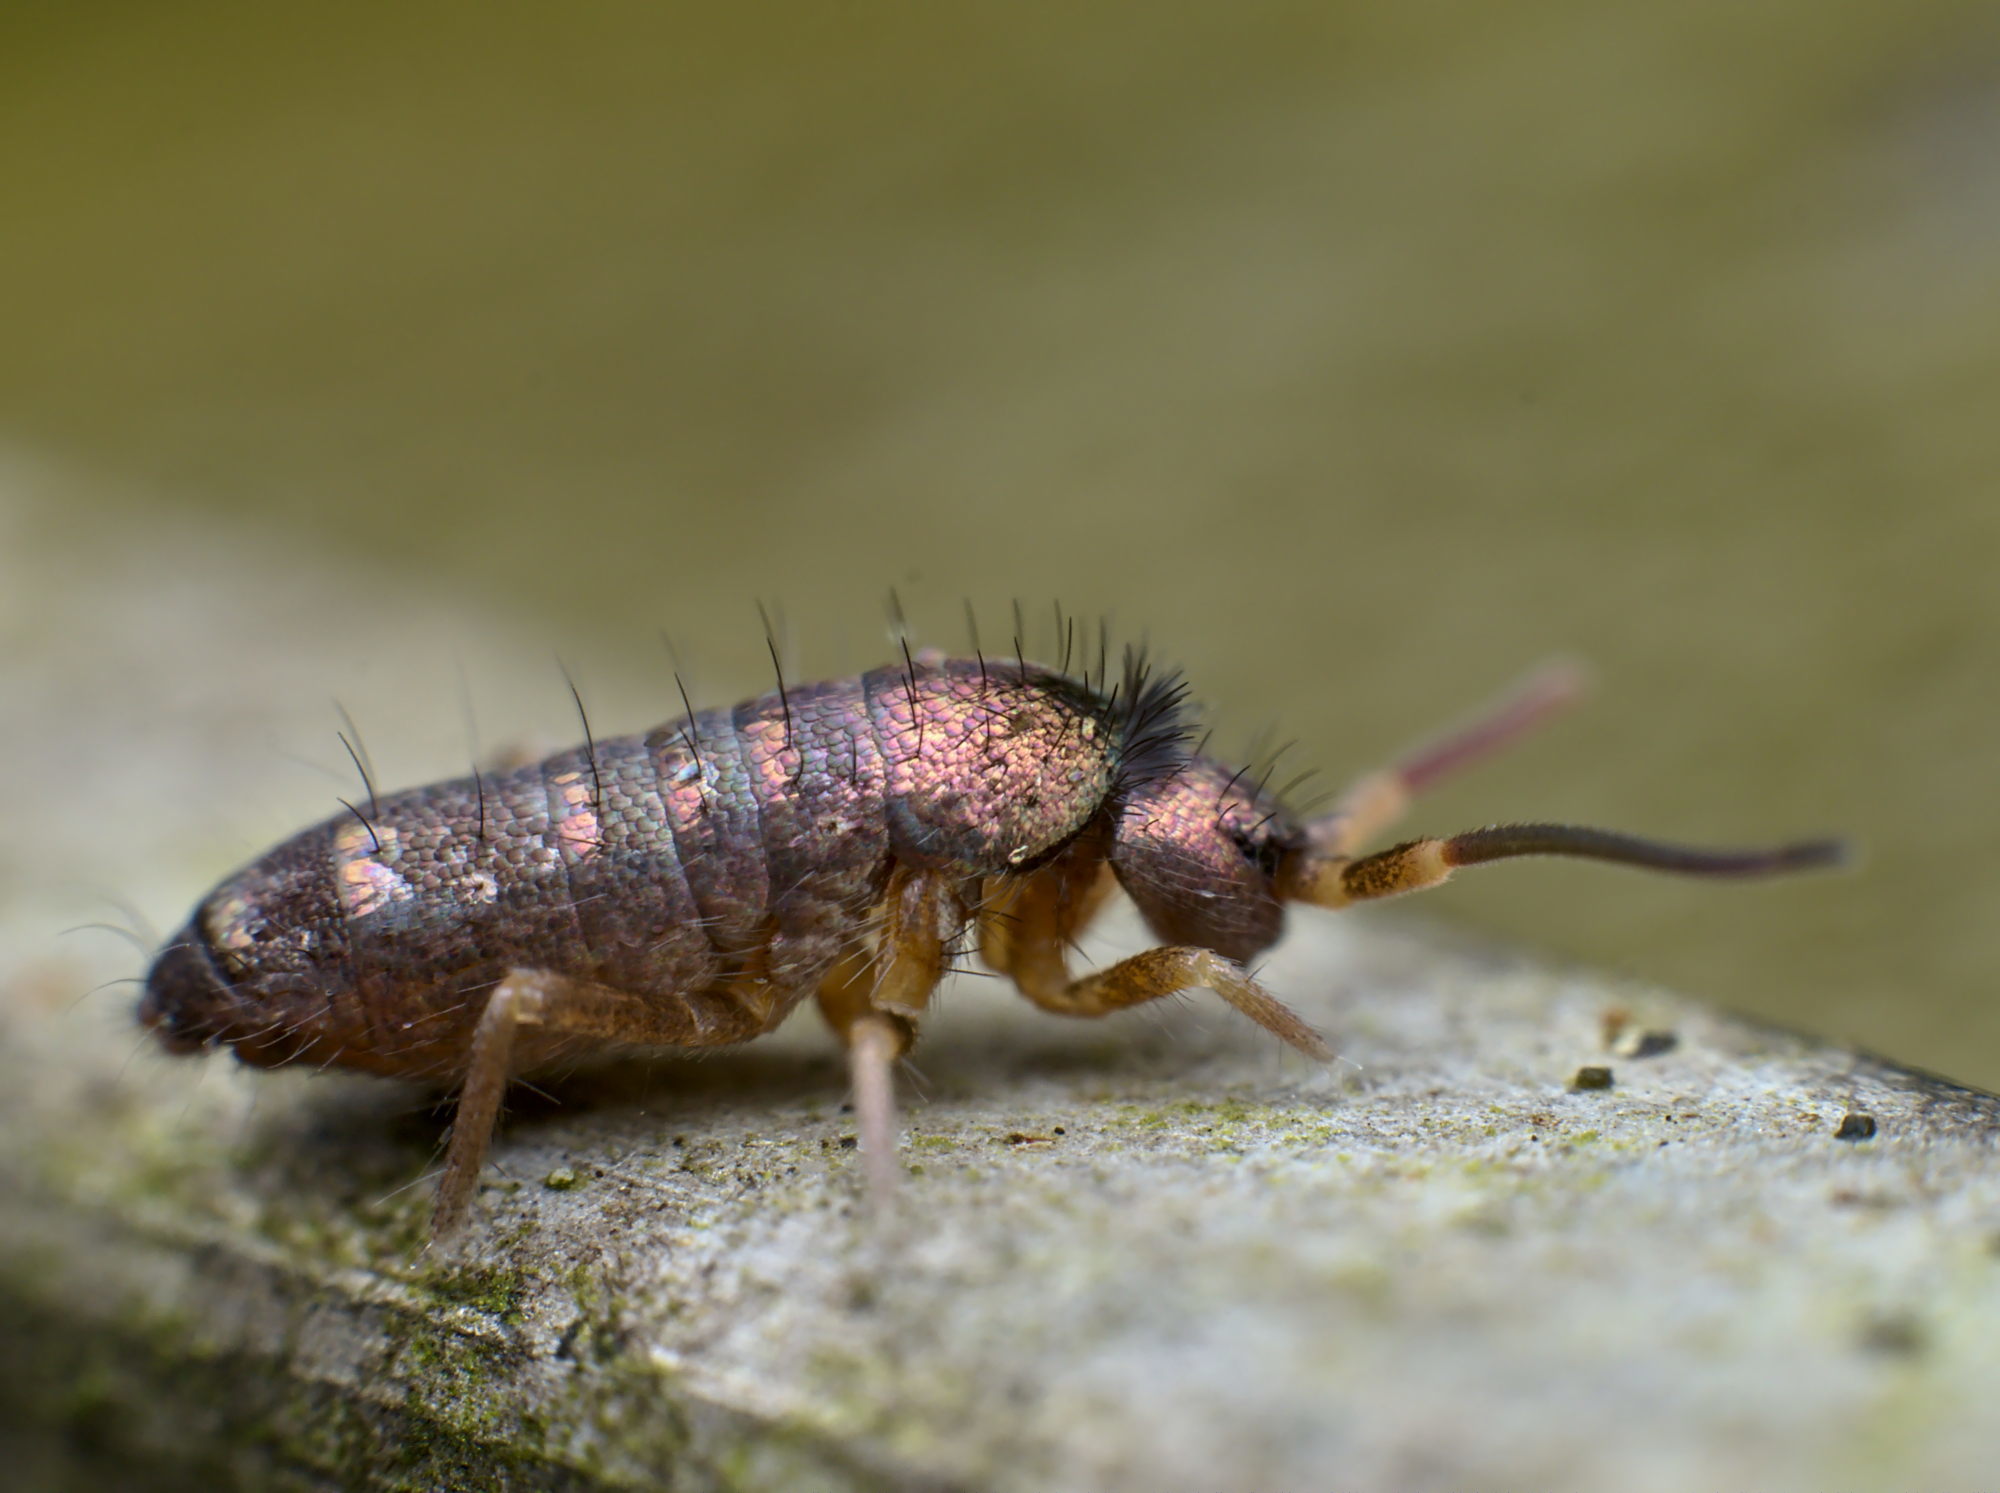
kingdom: Animalia
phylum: Arthropoda
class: Collembola
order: Entomobryomorpha
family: Tomoceridae
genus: Tomocerus
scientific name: Tomocerus vulgaris
